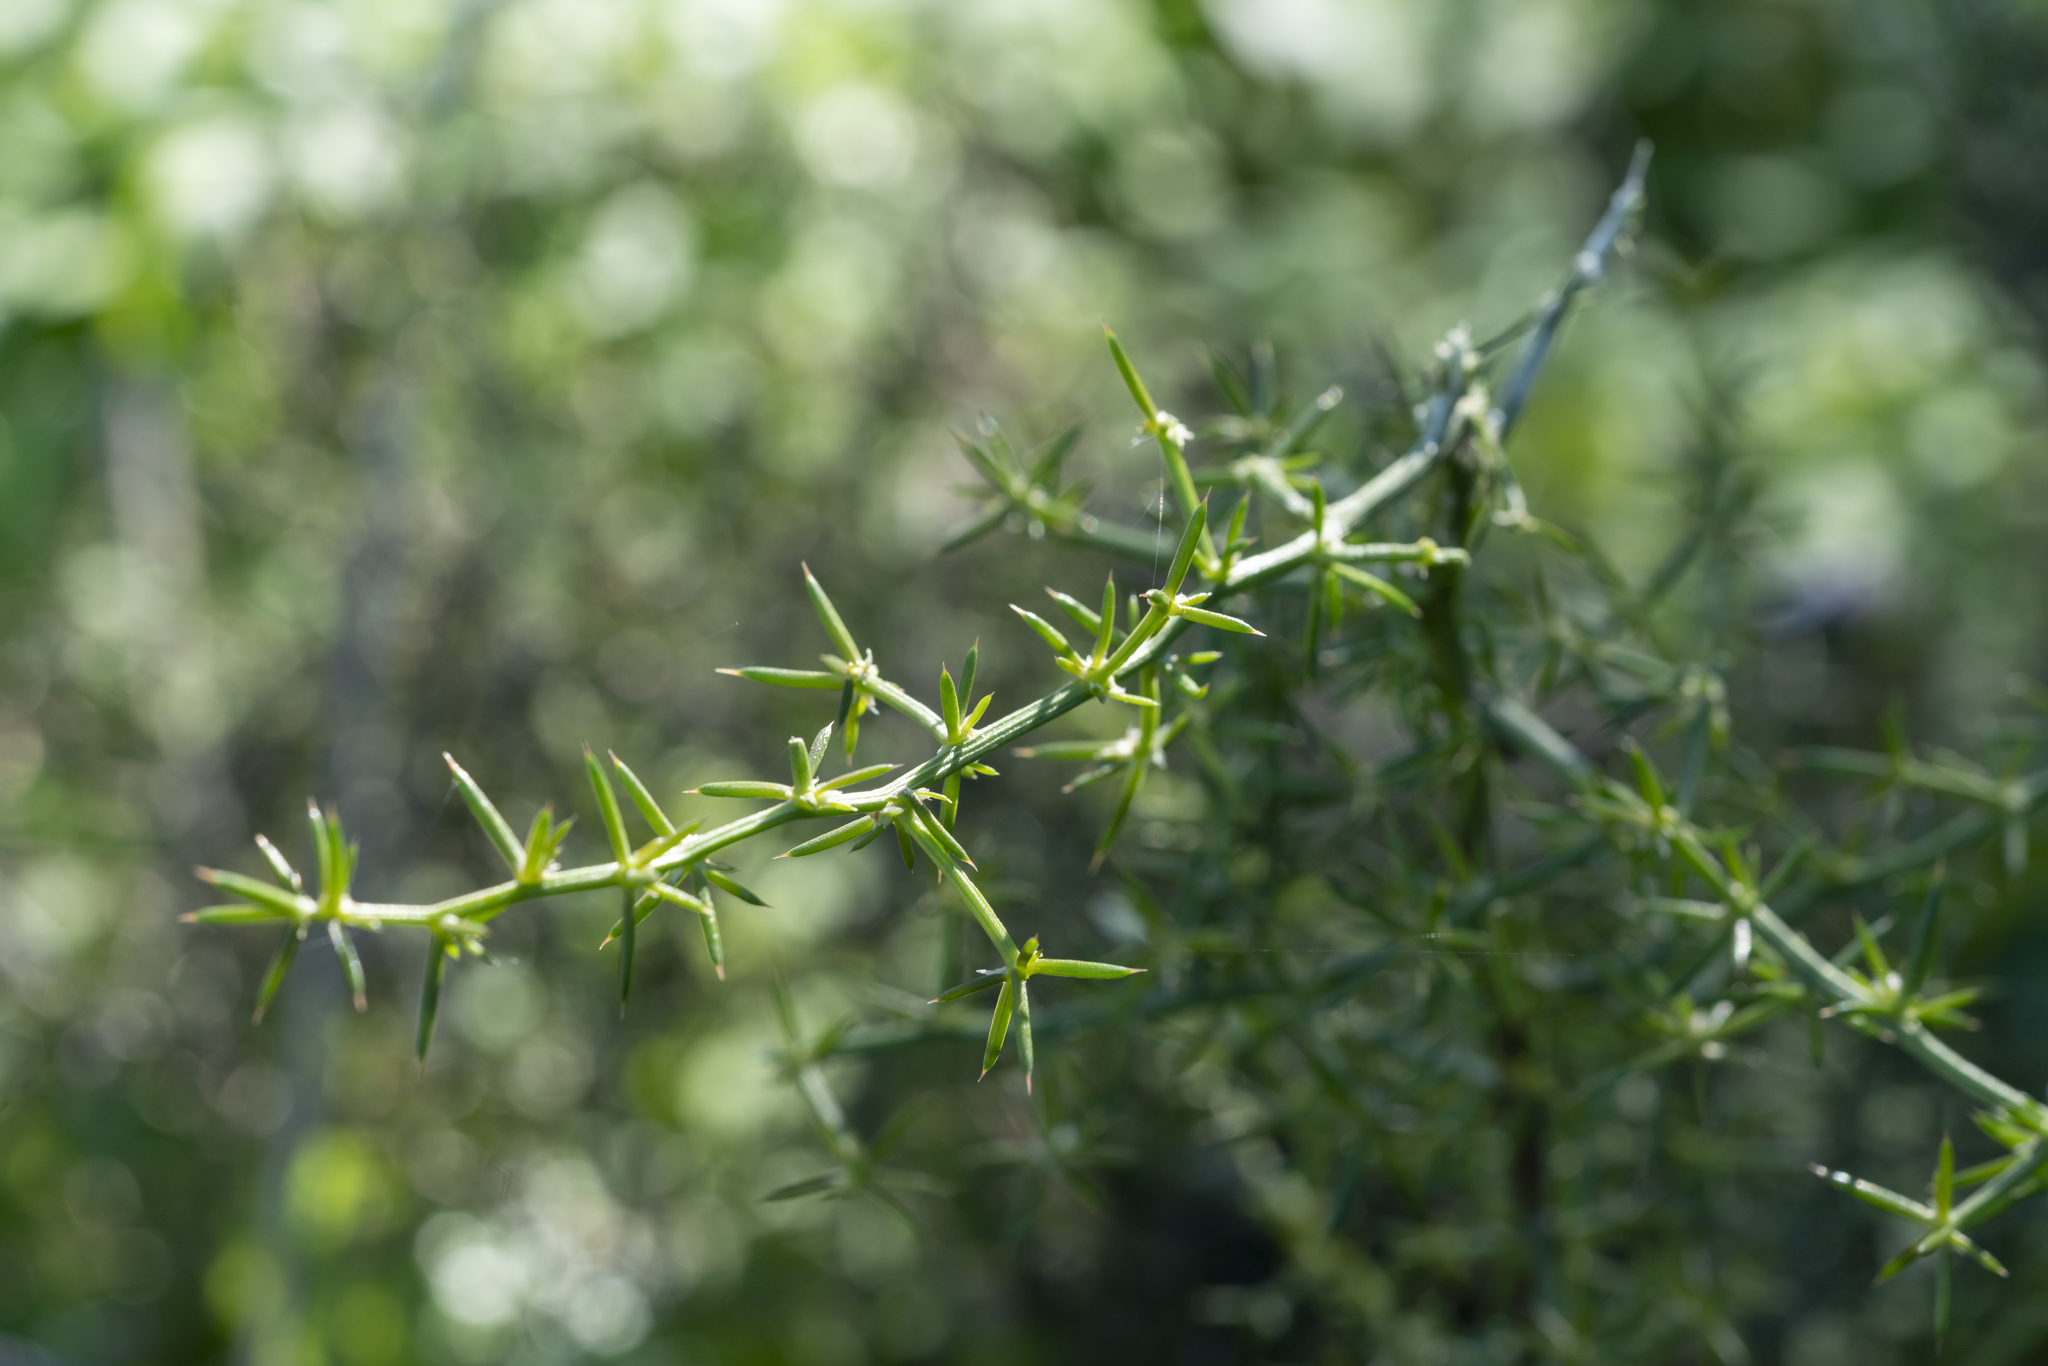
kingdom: Plantae
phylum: Tracheophyta
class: Liliopsida
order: Asparagales
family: Asparagaceae
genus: Asparagus
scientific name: Asparagus aphyllus
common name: Mediterranean asparagus
